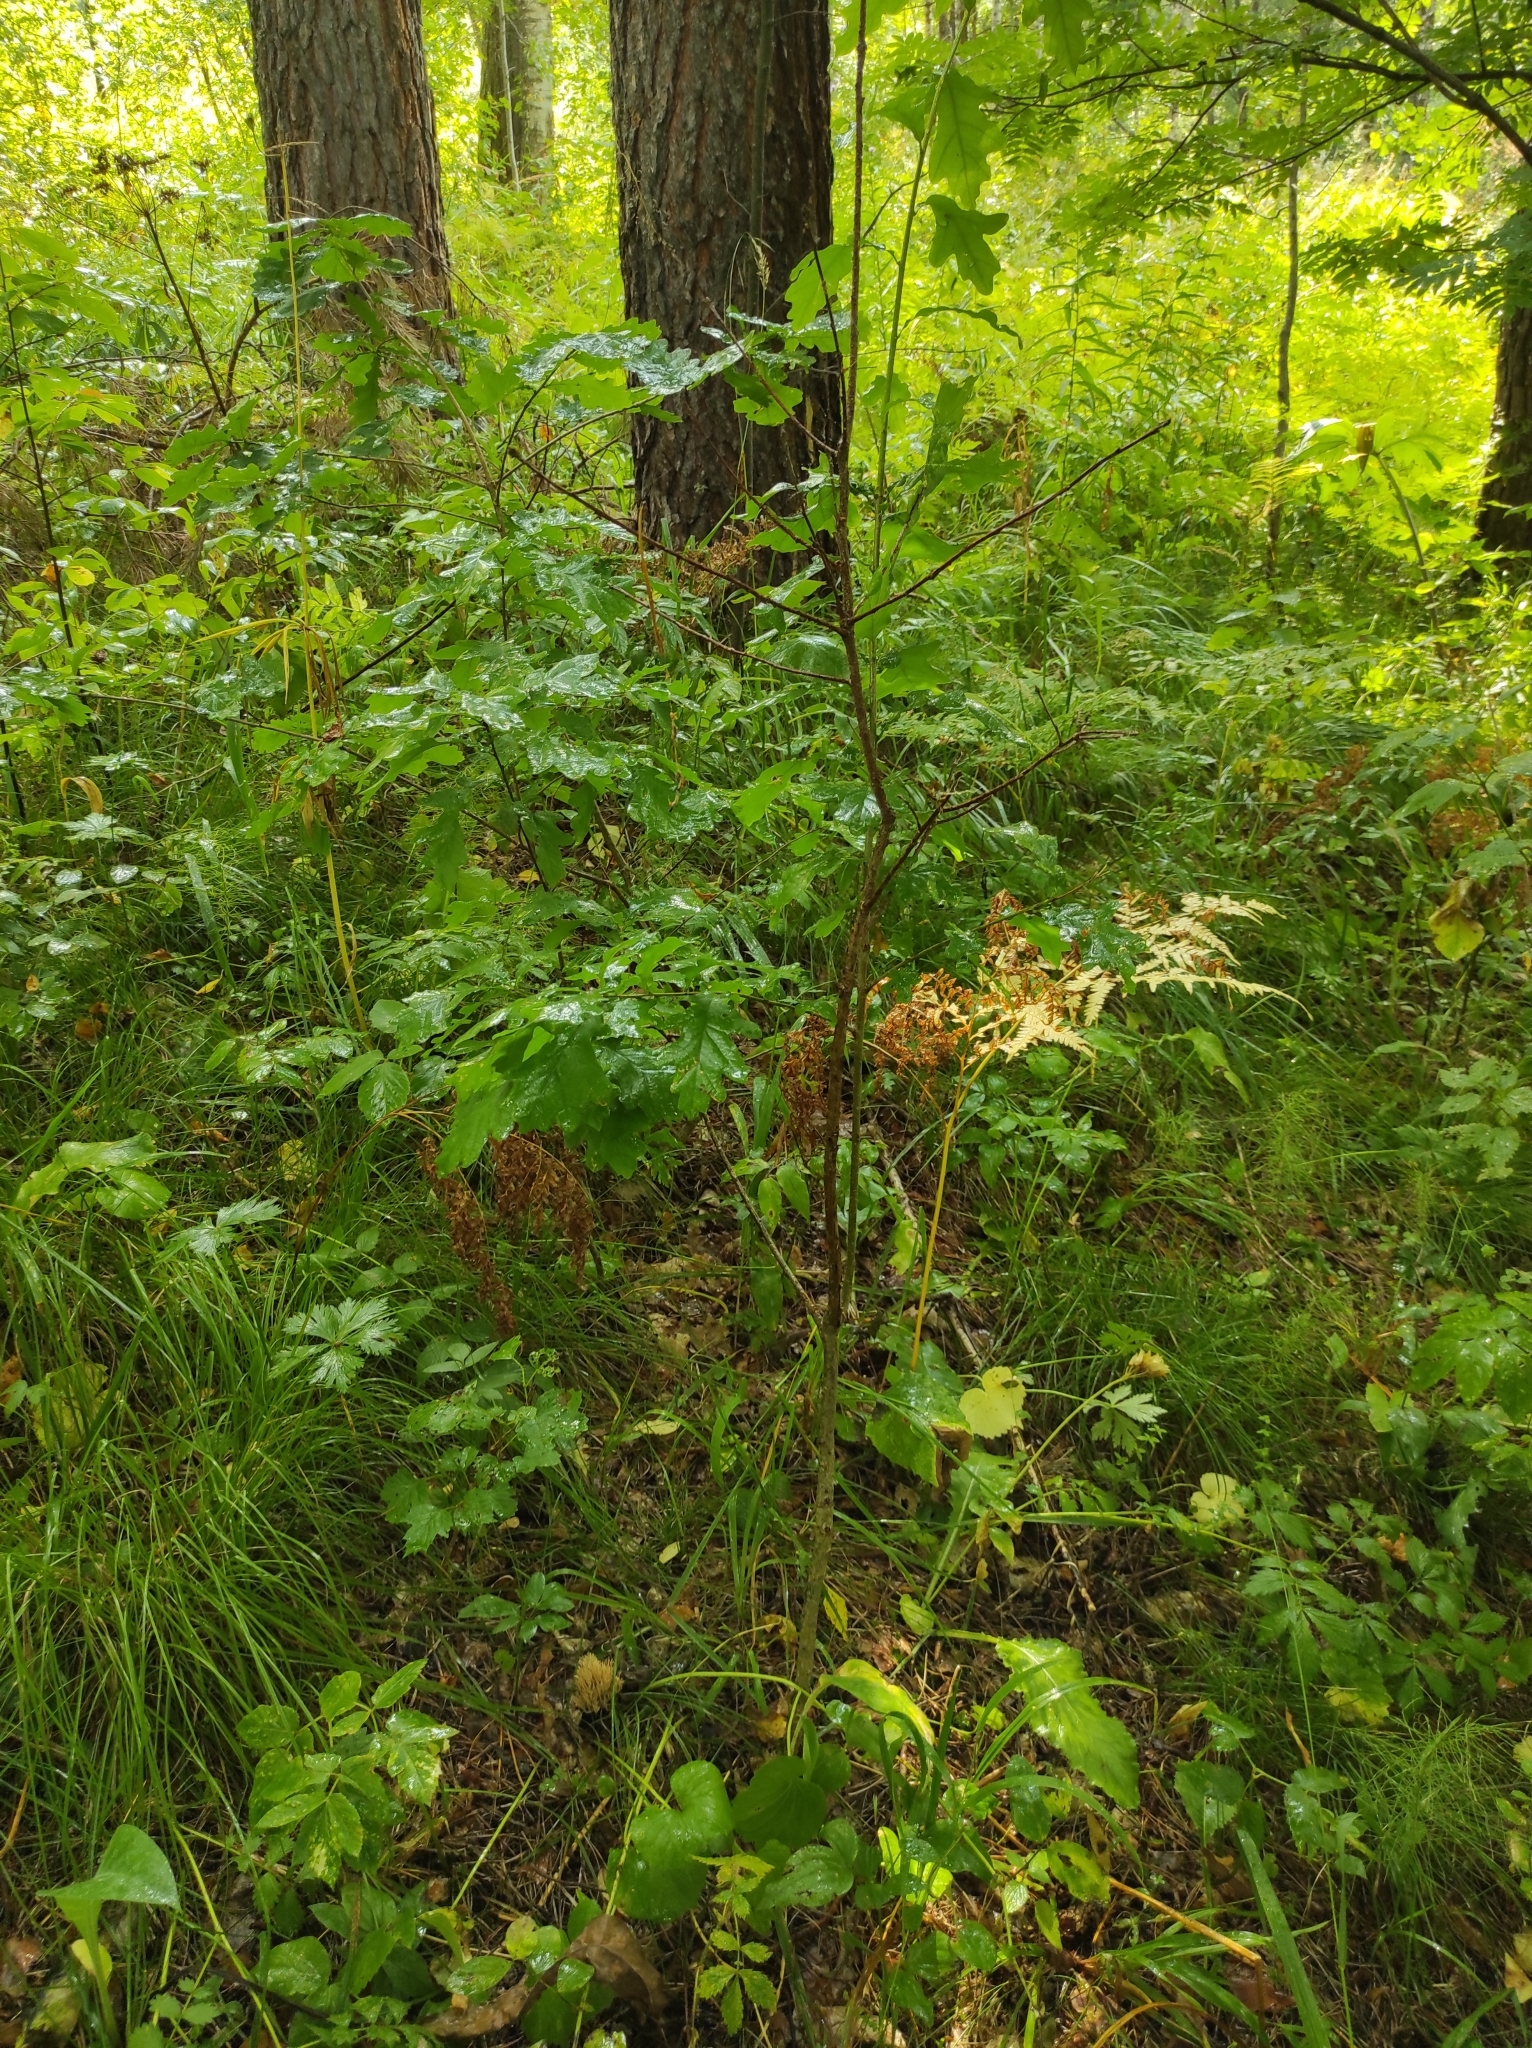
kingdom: Plantae
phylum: Tracheophyta
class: Magnoliopsida
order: Fagales
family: Fagaceae
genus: Quercus
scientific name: Quercus robur
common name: Pedunculate oak
